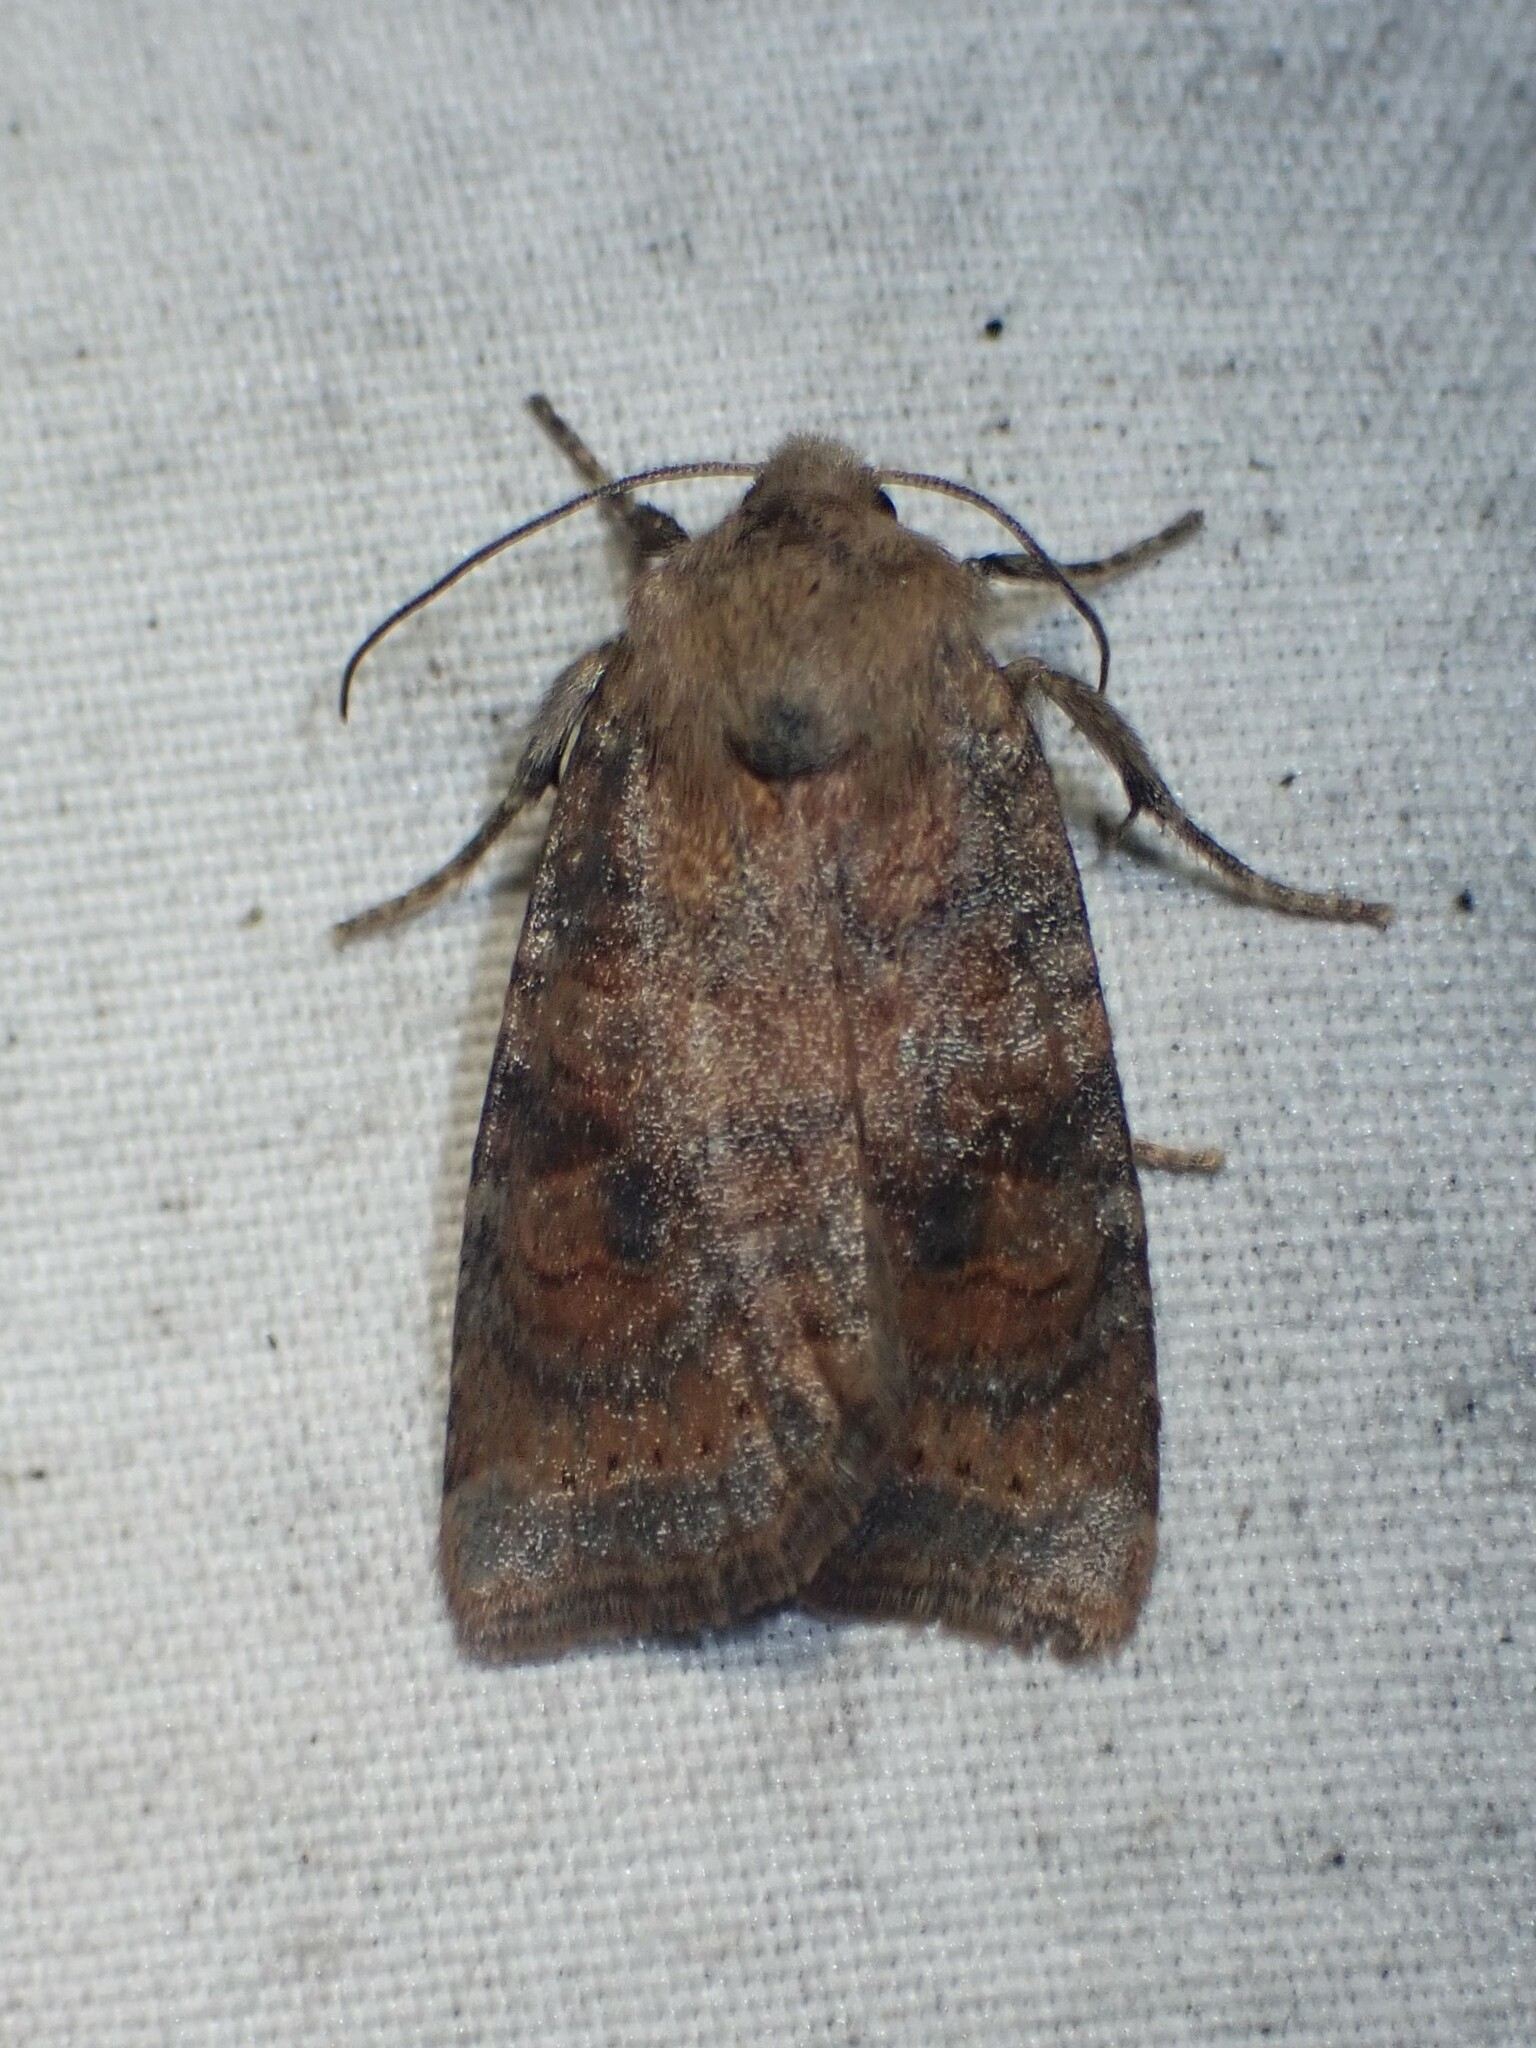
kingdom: Animalia
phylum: Arthropoda
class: Insecta
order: Lepidoptera
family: Noctuidae
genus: Anathix
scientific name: Anathix puta
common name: Puta sallow
